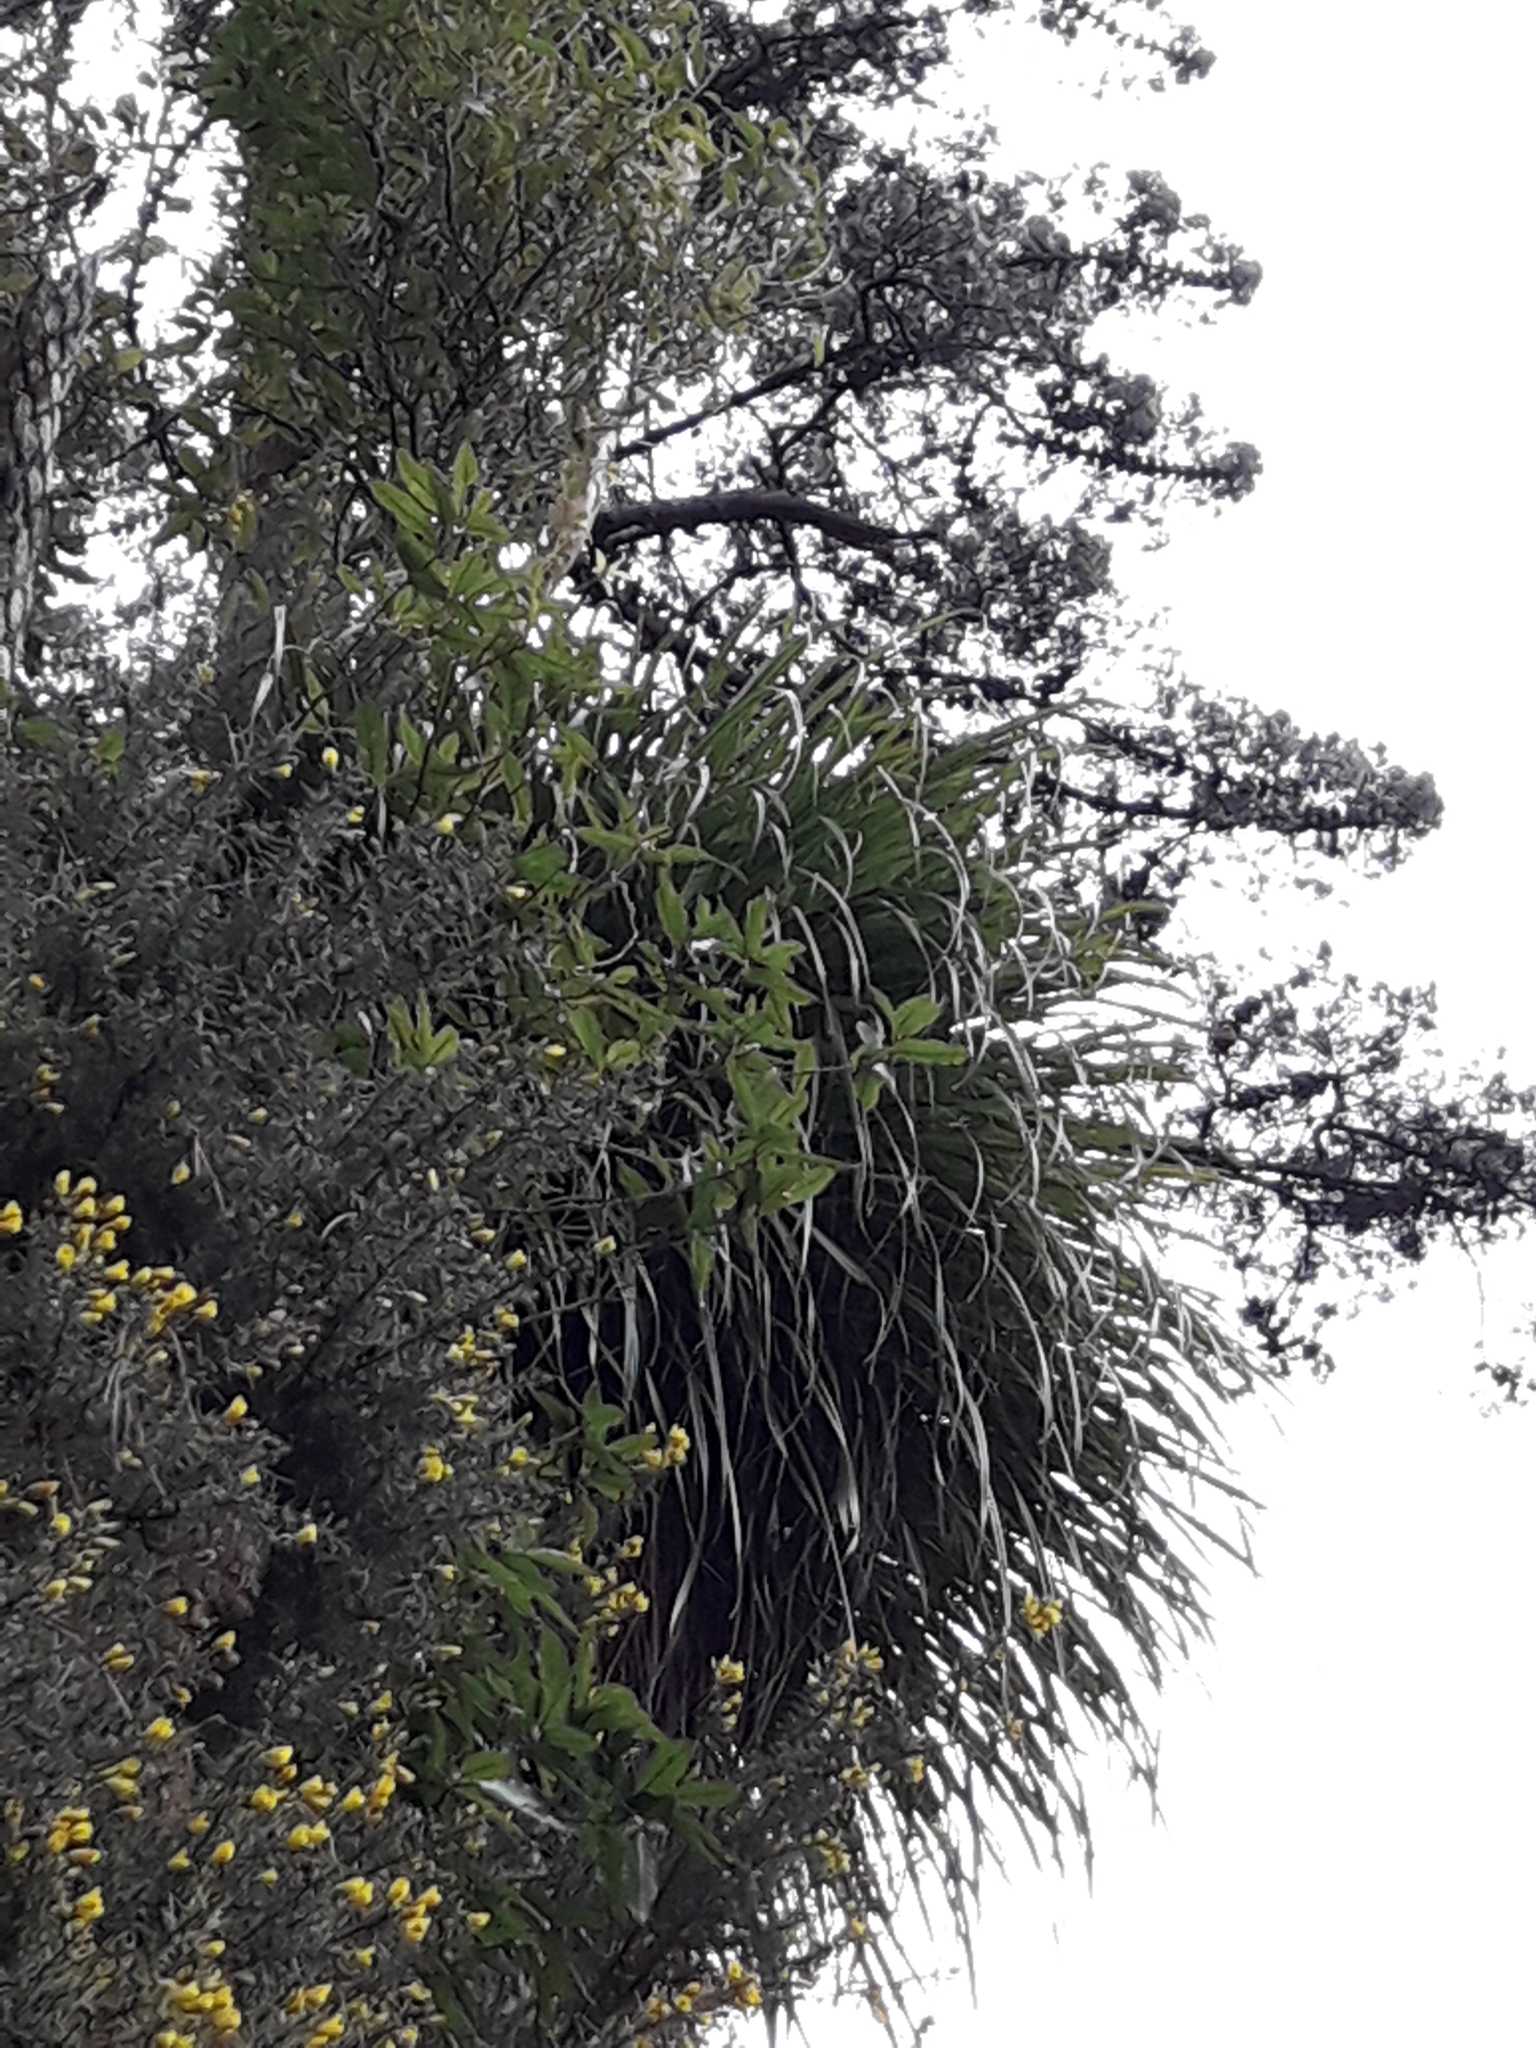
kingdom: Plantae
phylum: Tracheophyta
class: Liliopsida
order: Asparagales
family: Asteliaceae
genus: Astelia
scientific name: Astelia solandri
